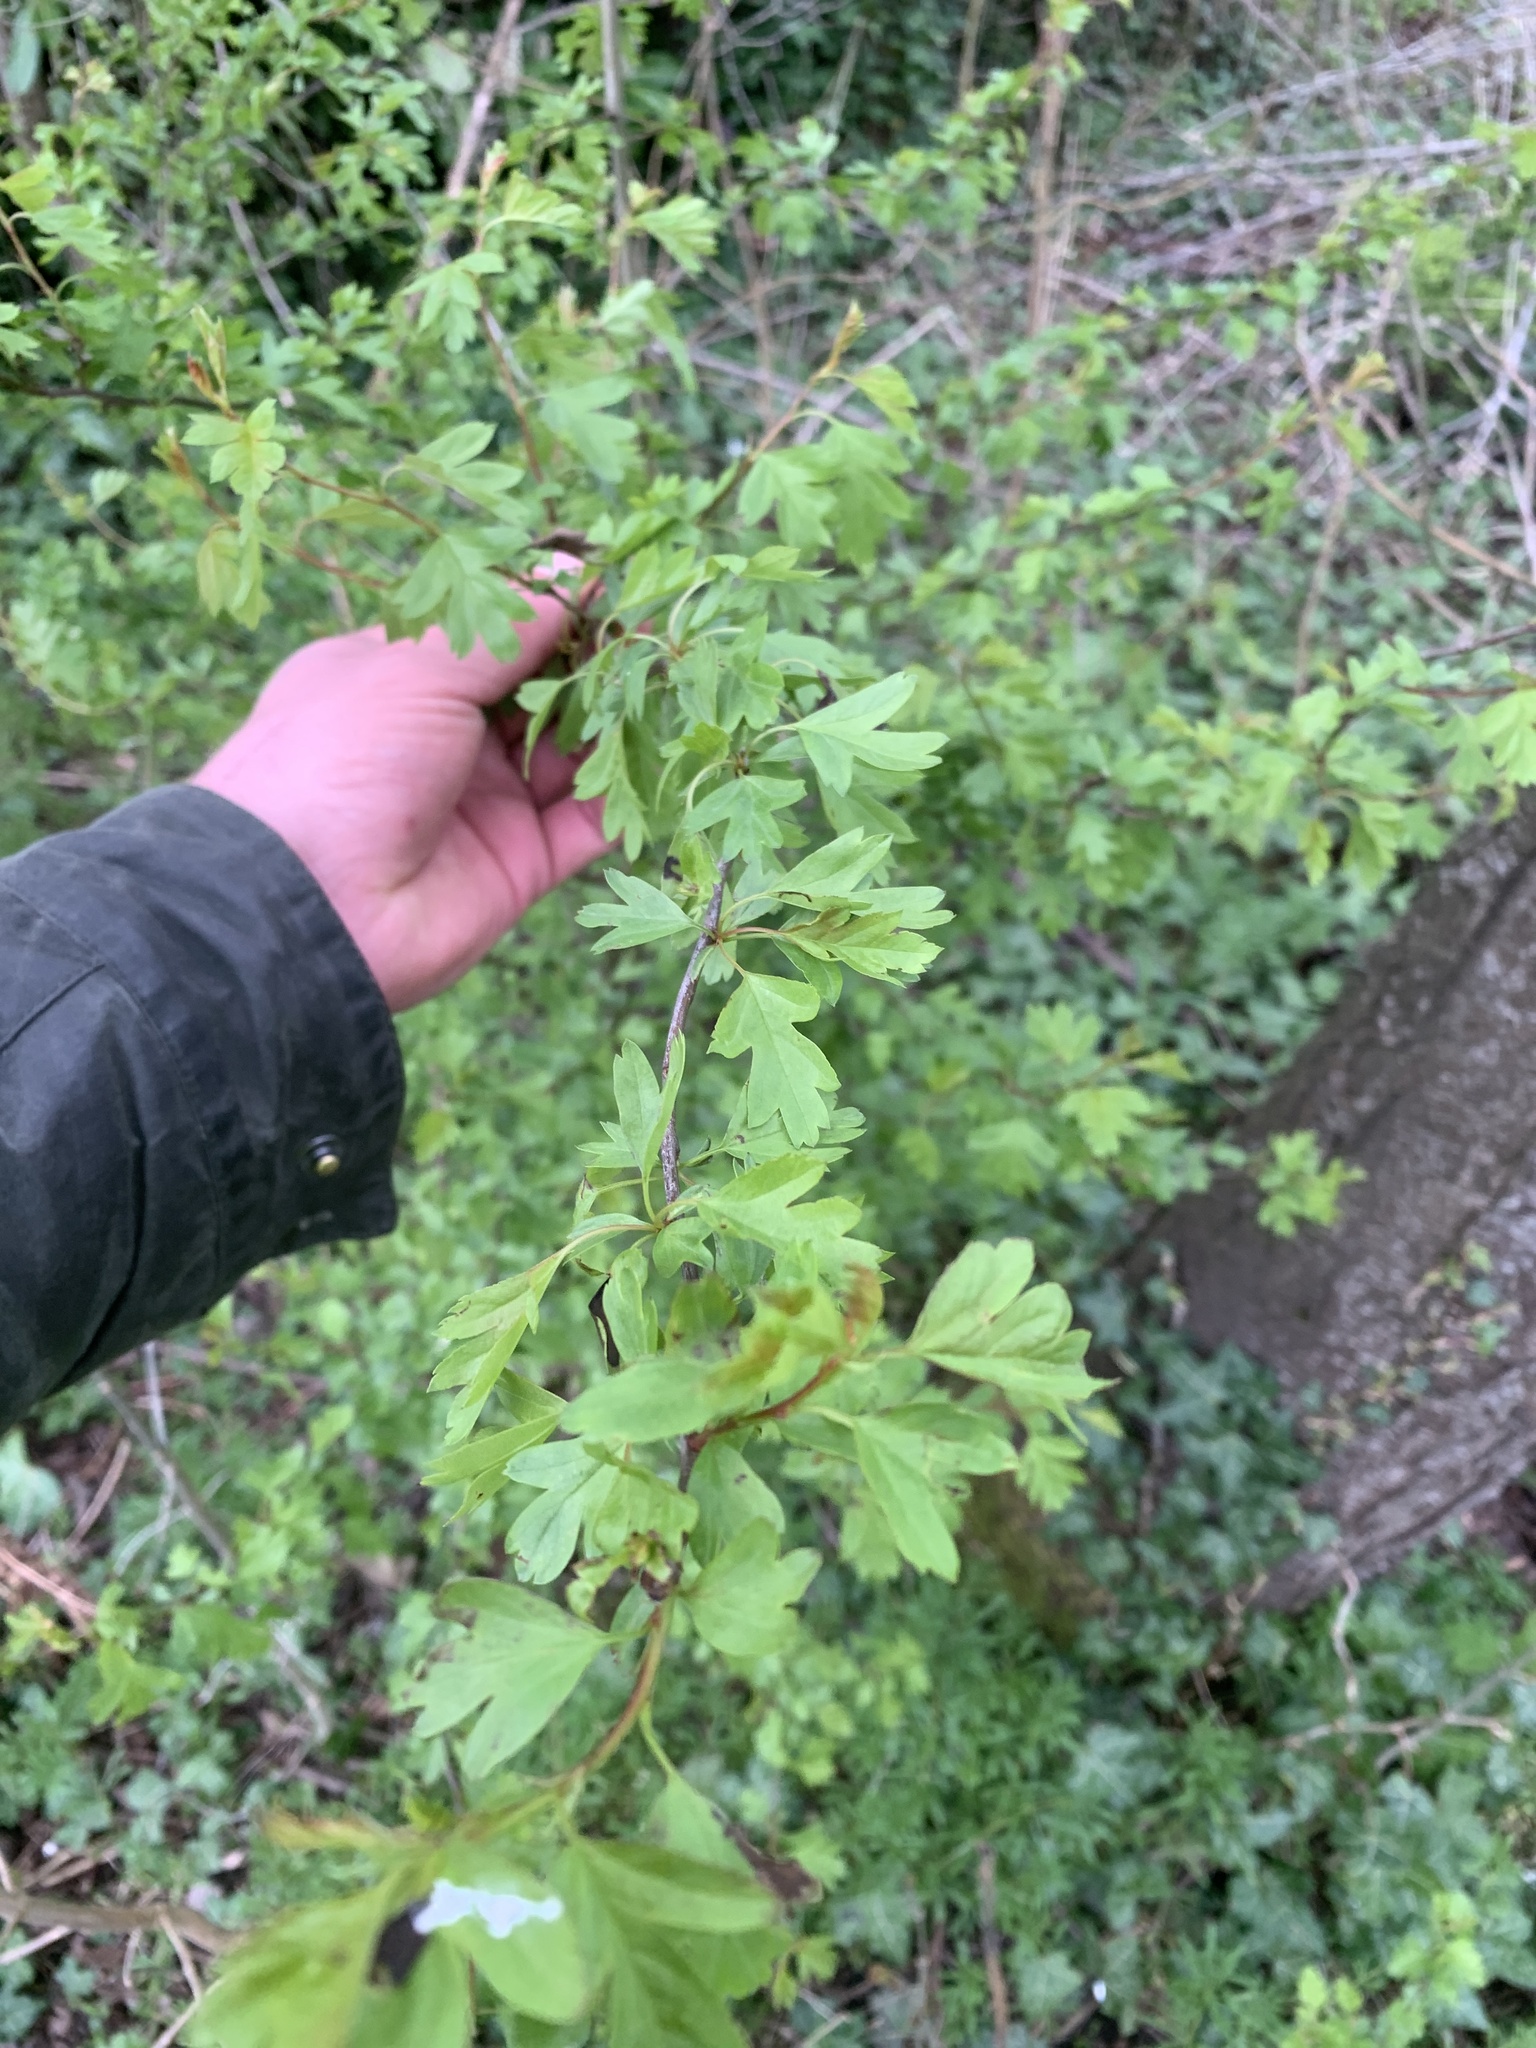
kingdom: Plantae
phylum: Tracheophyta
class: Magnoliopsida
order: Rosales
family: Rosaceae
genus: Crataegus
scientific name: Crataegus monogyna
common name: Hawthorn
